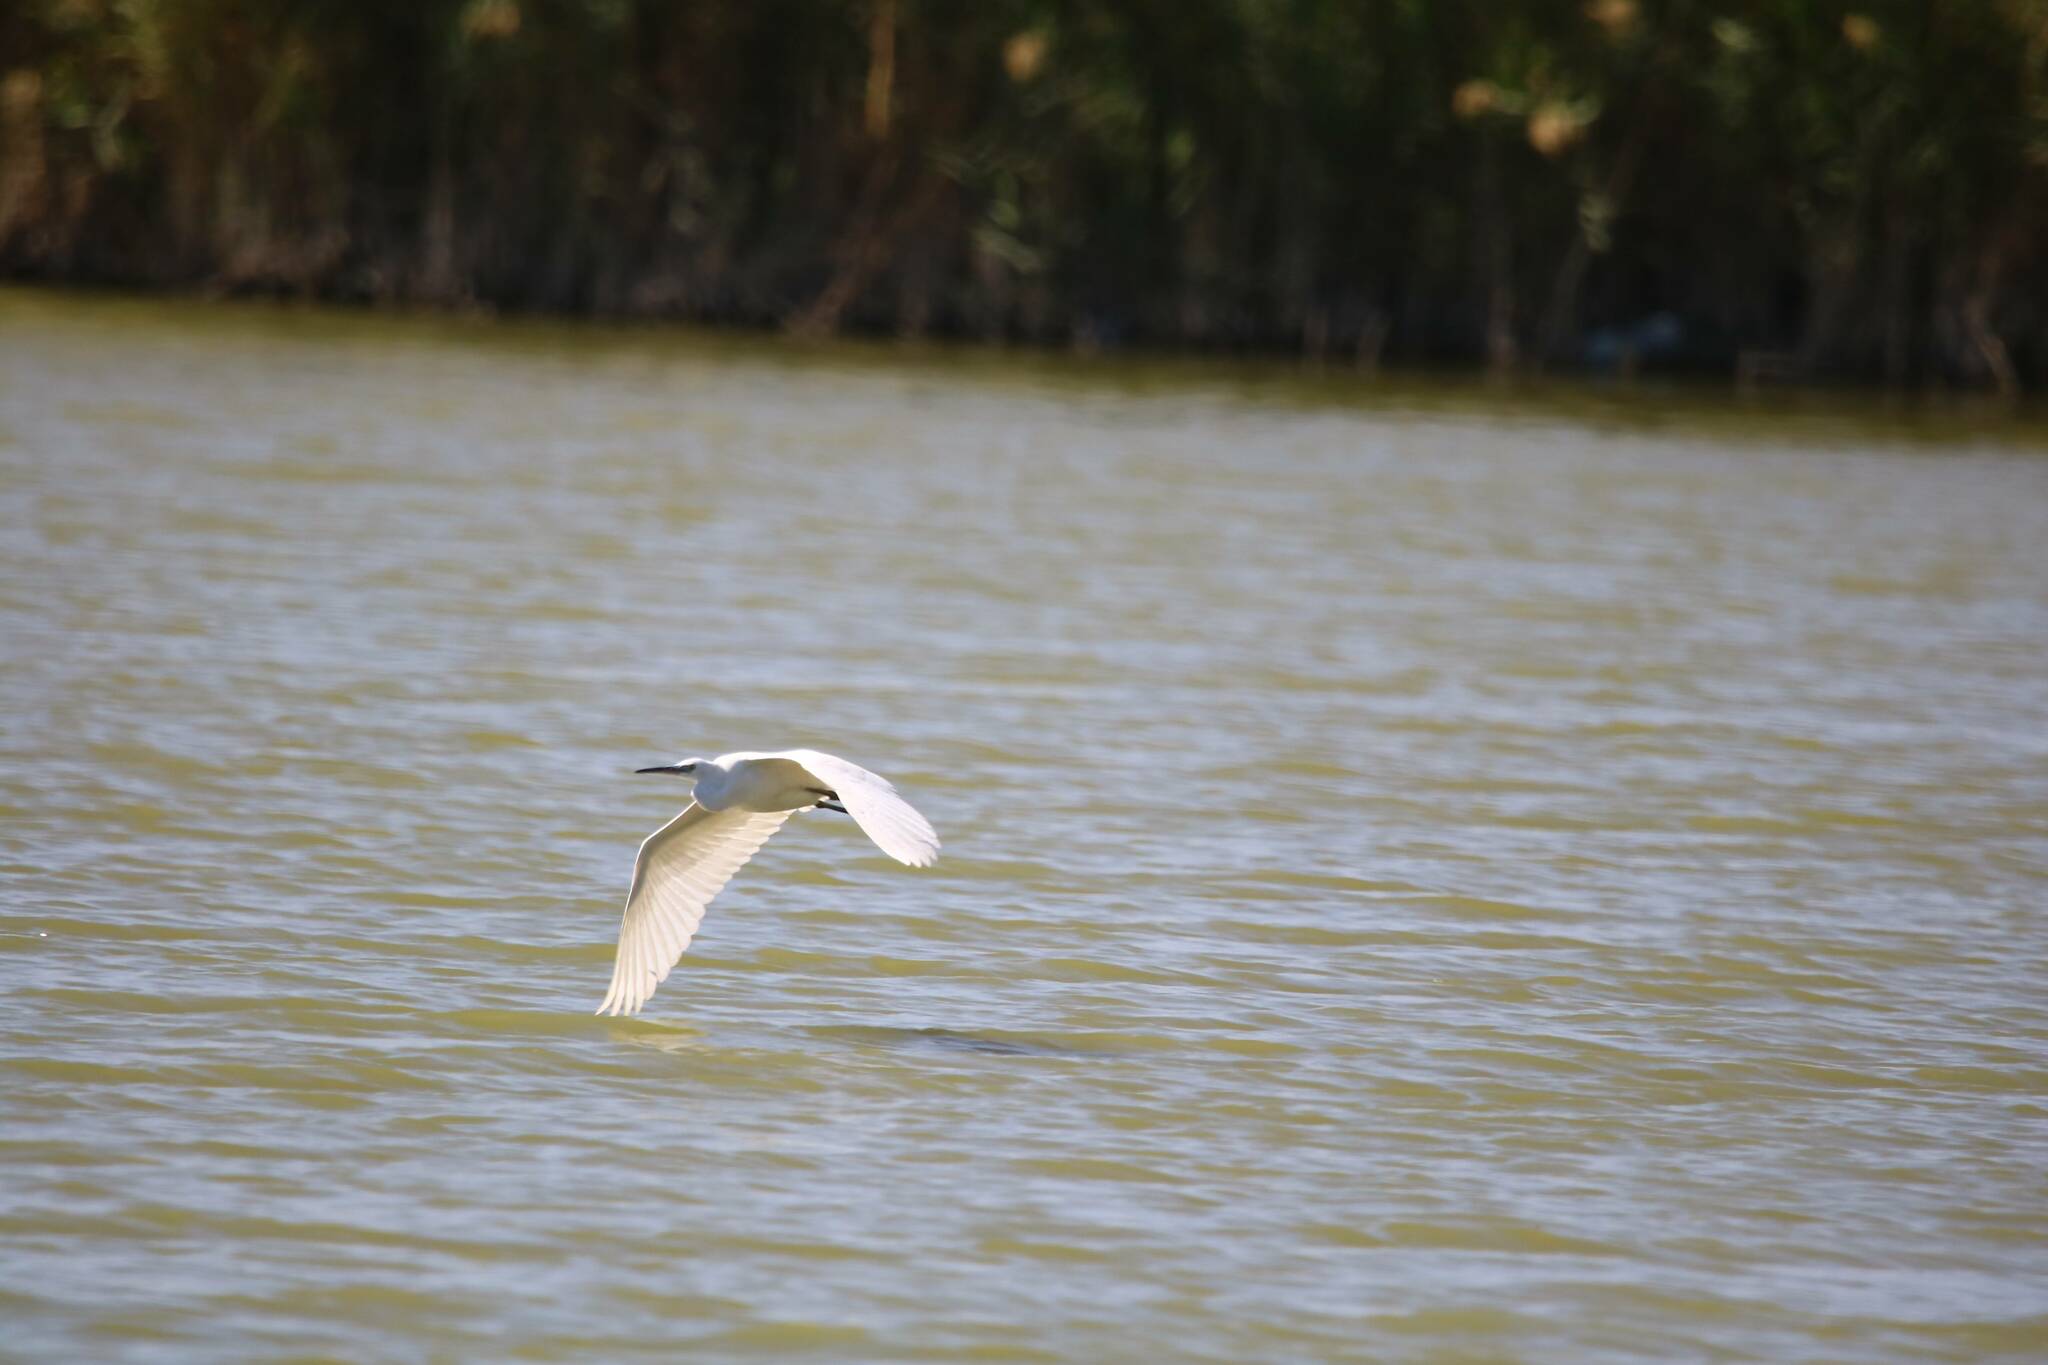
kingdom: Animalia
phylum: Chordata
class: Aves
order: Pelecaniformes
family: Ardeidae
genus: Egretta
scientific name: Egretta garzetta
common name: Little egret
